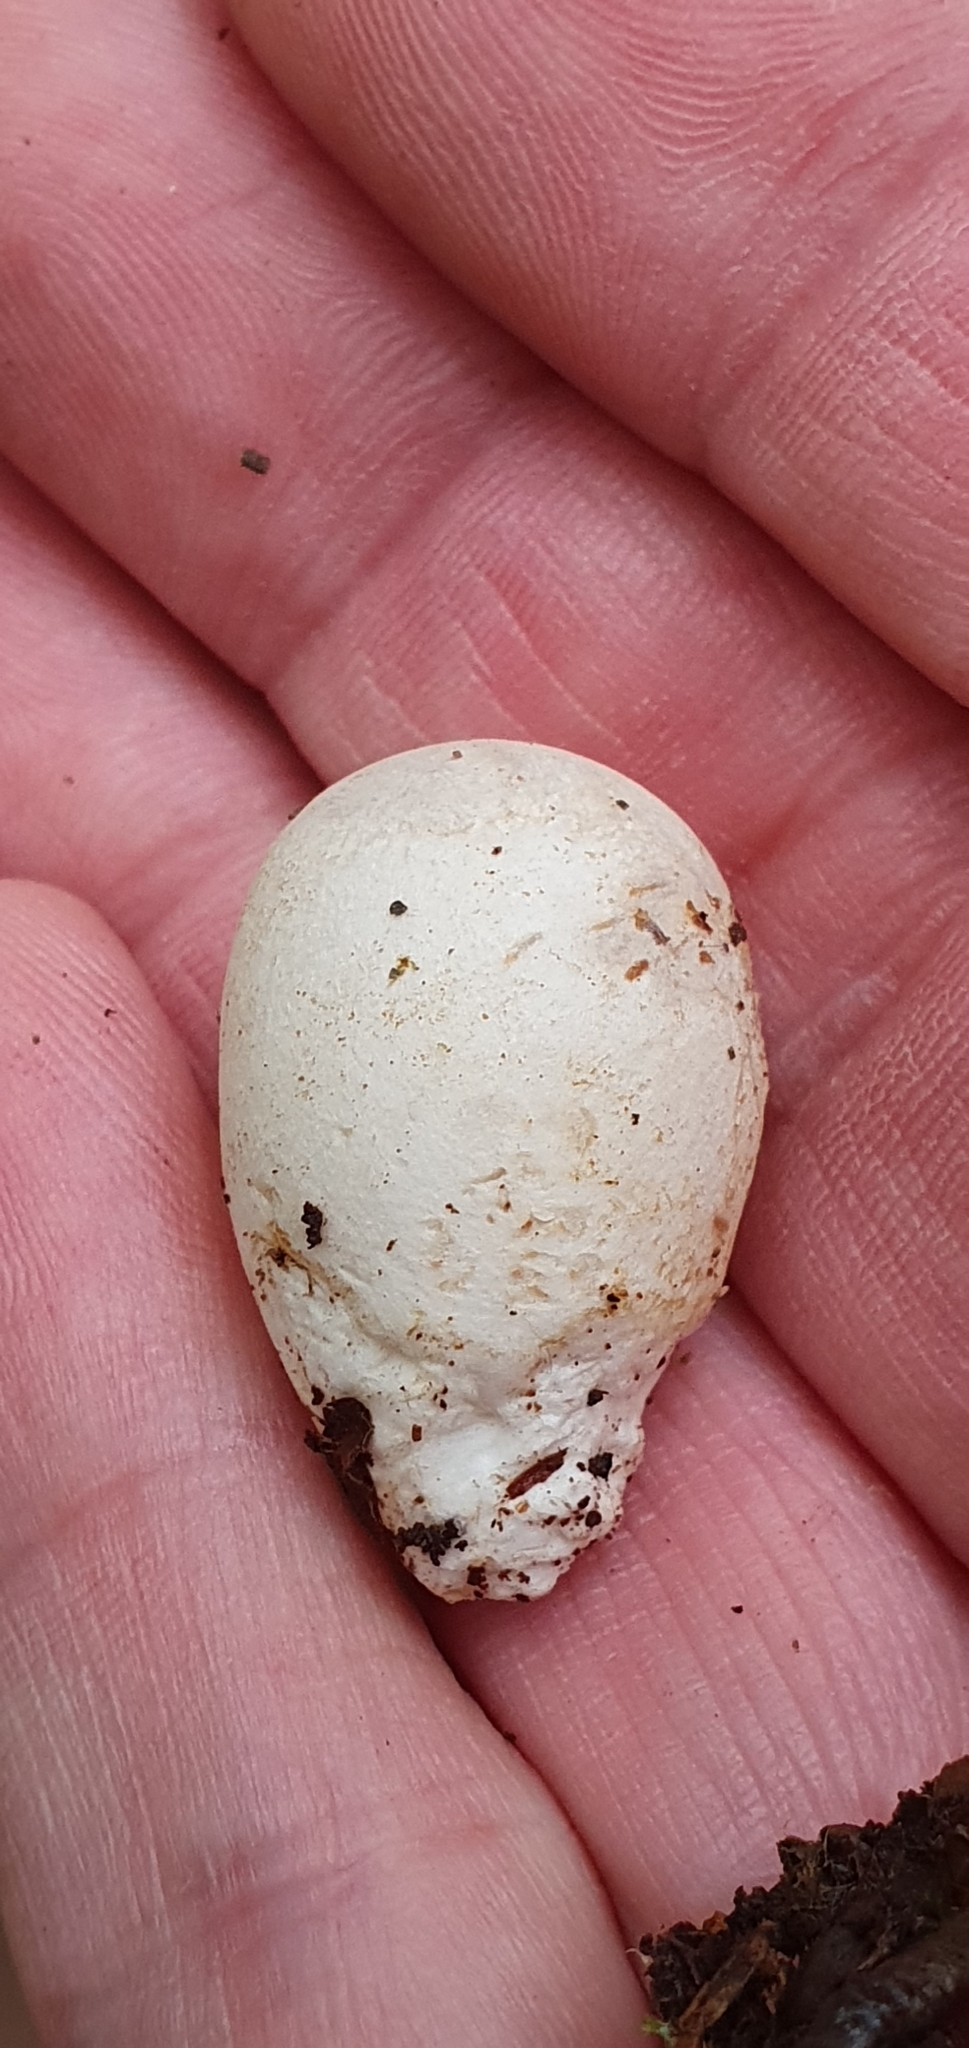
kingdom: Fungi
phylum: Basidiomycota
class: Agaricomycetes
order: Phallales
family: Phallaceae
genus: Mutinus
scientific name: Mutinus caninus
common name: Dog stinkhorn
